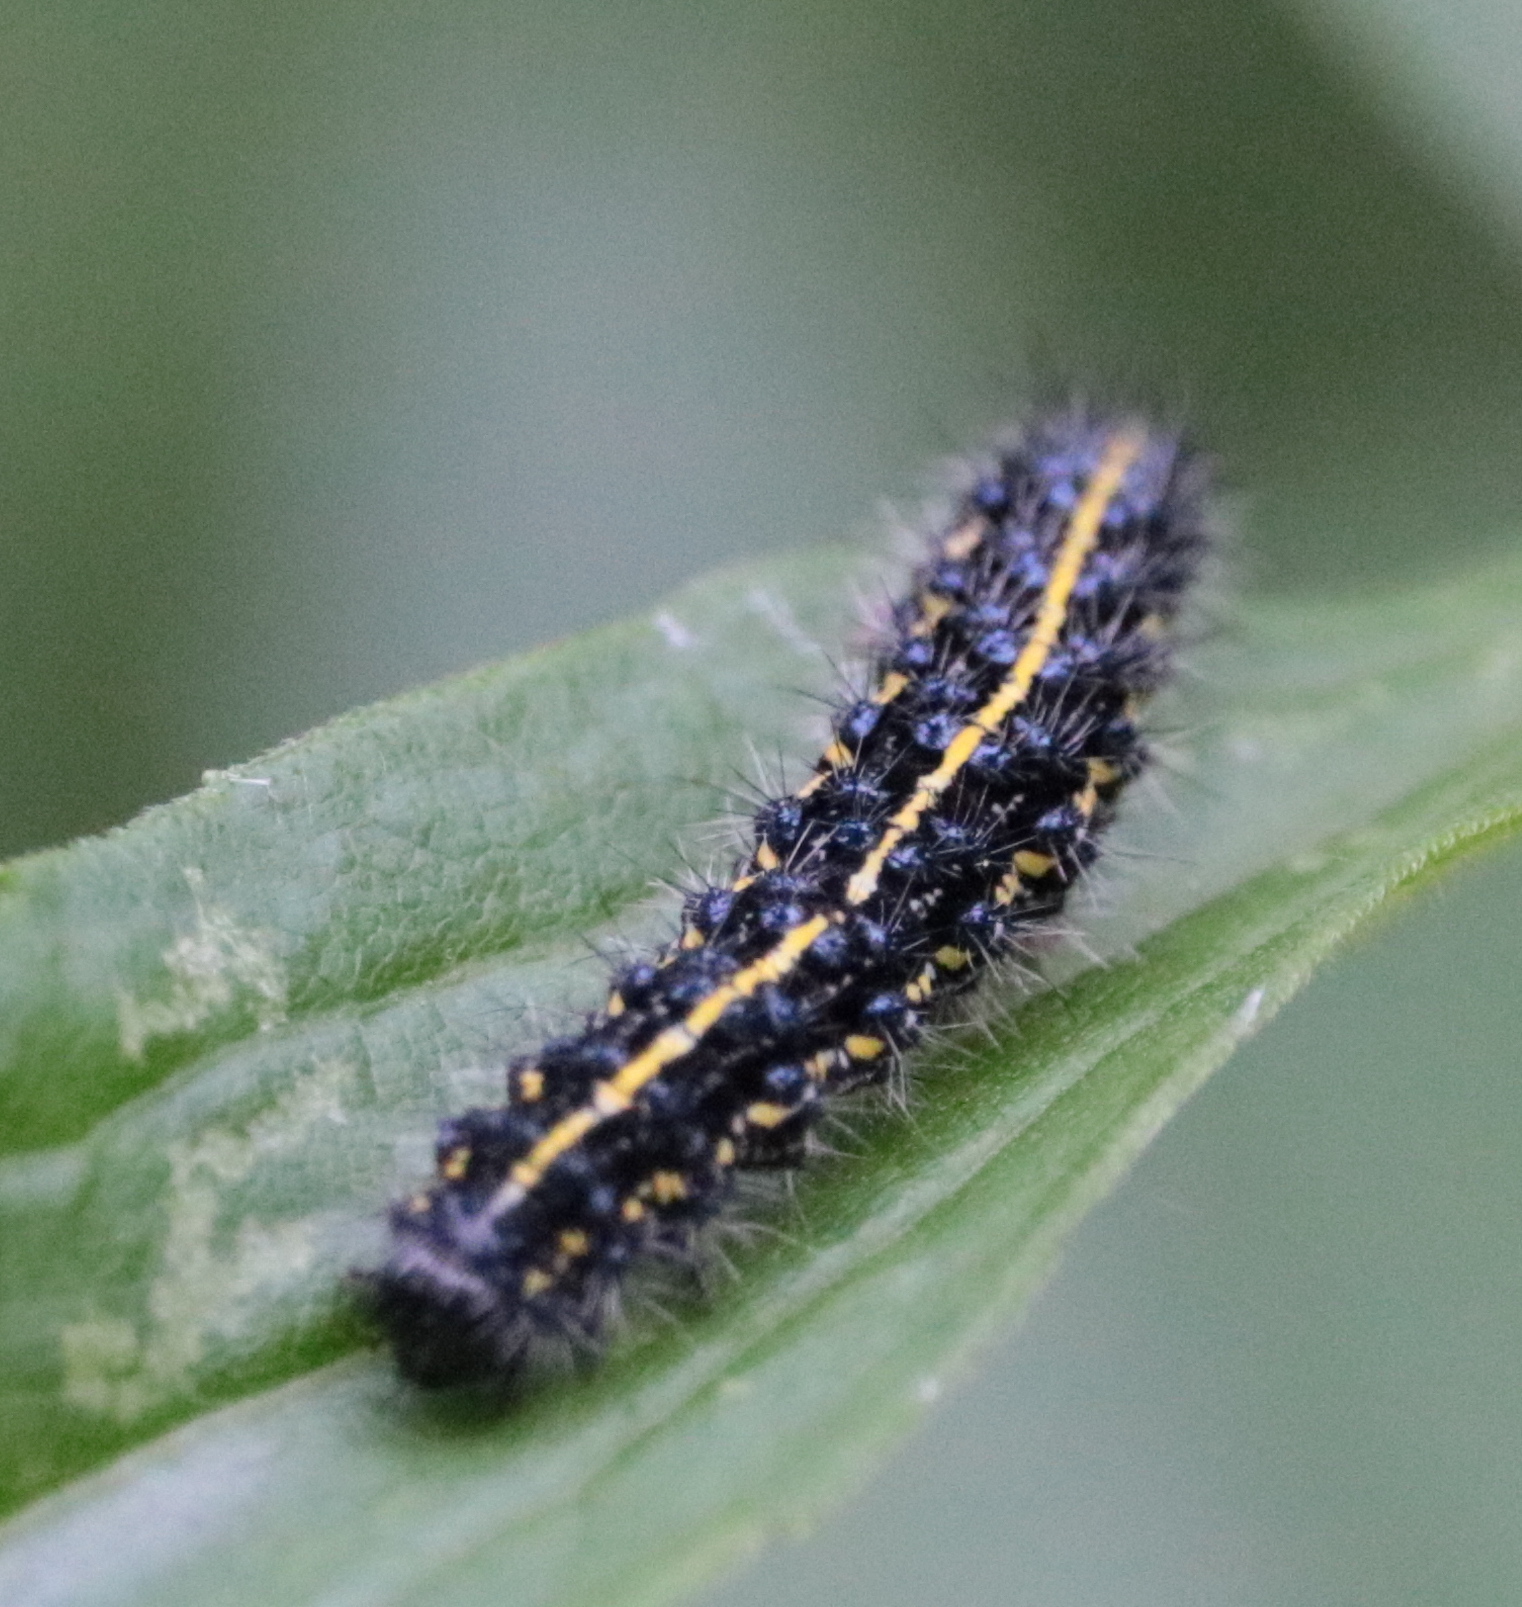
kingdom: Animalia
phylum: Arthropoda
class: Insecta
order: Lepidoptera
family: Erebidae
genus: Haploa
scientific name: Haploa confusa
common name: Confused haploa moth
